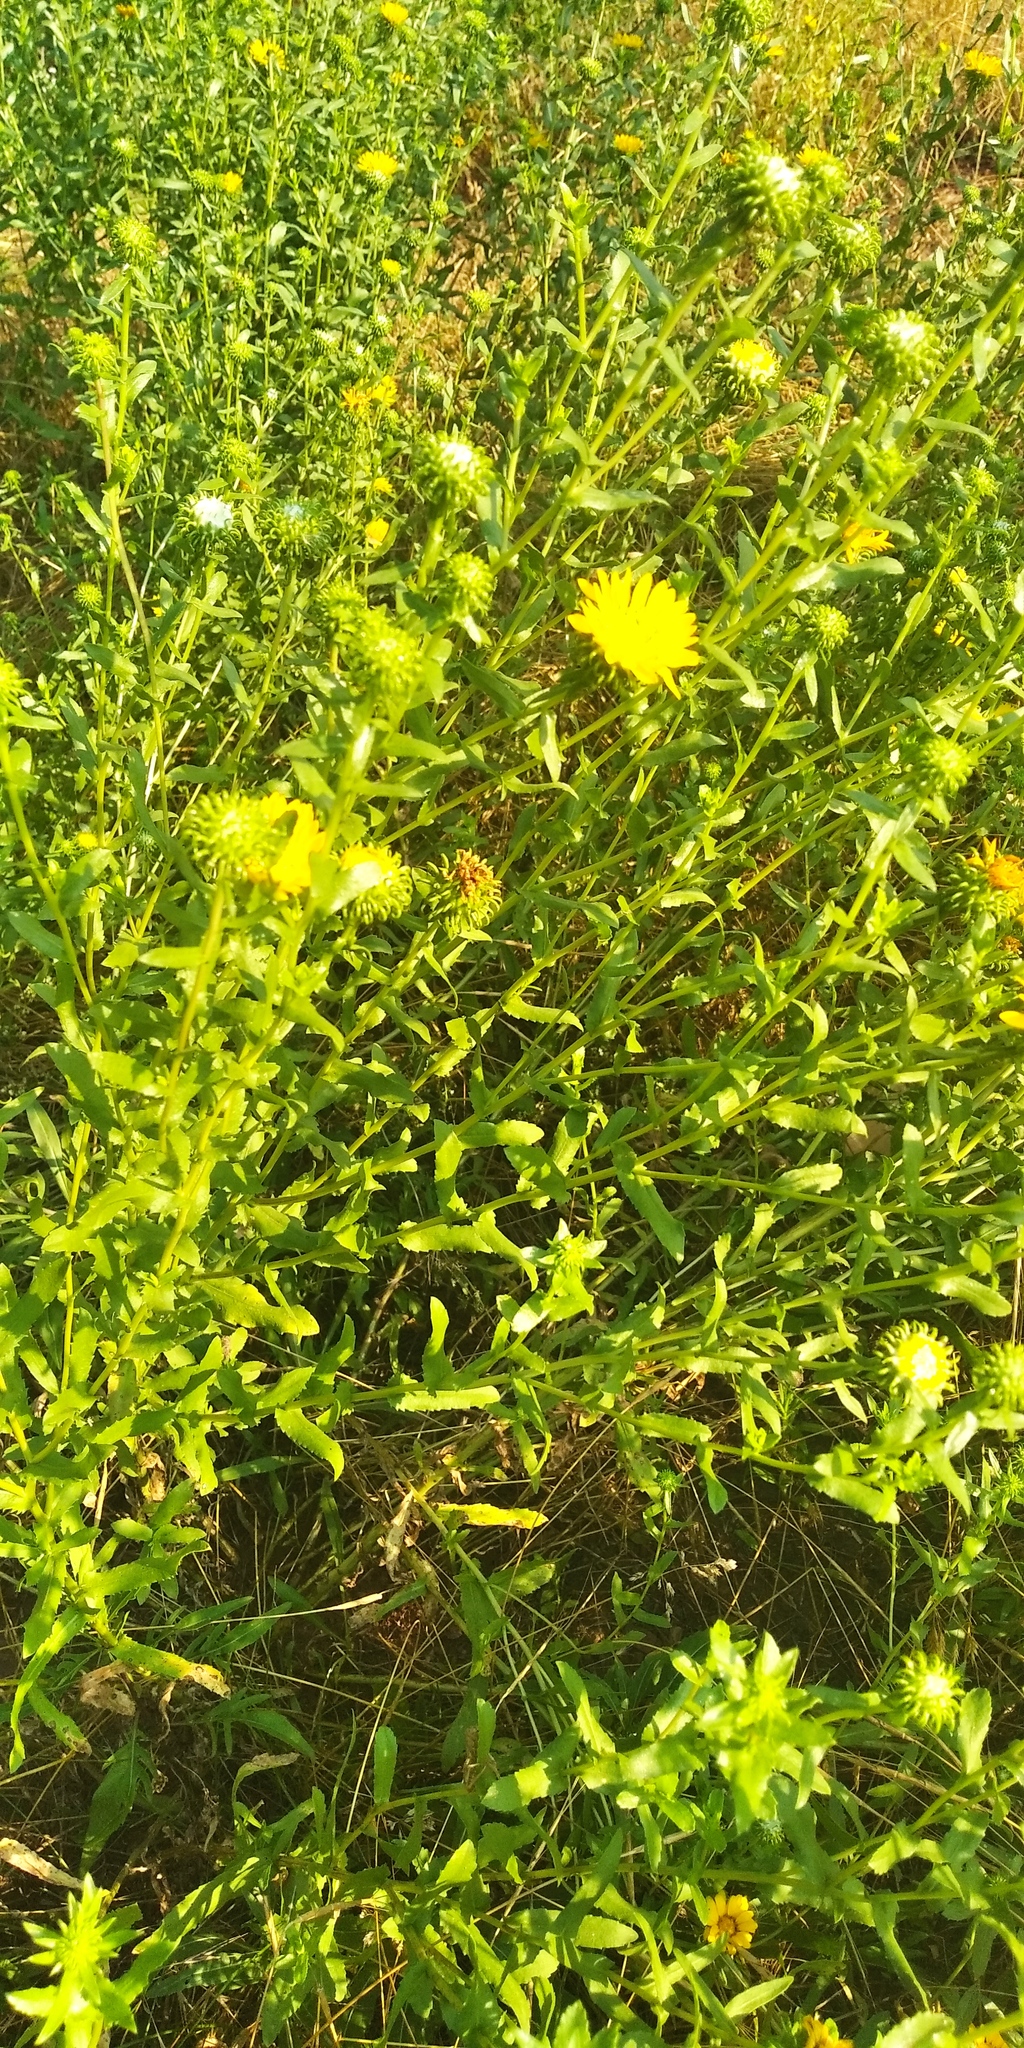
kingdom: Plantae
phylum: Tracheophyta
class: Magnoliopsida
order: Asterales
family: Asteraceae
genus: Grindelia
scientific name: Grindelia squarrosa
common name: Curly-cup gumweed
